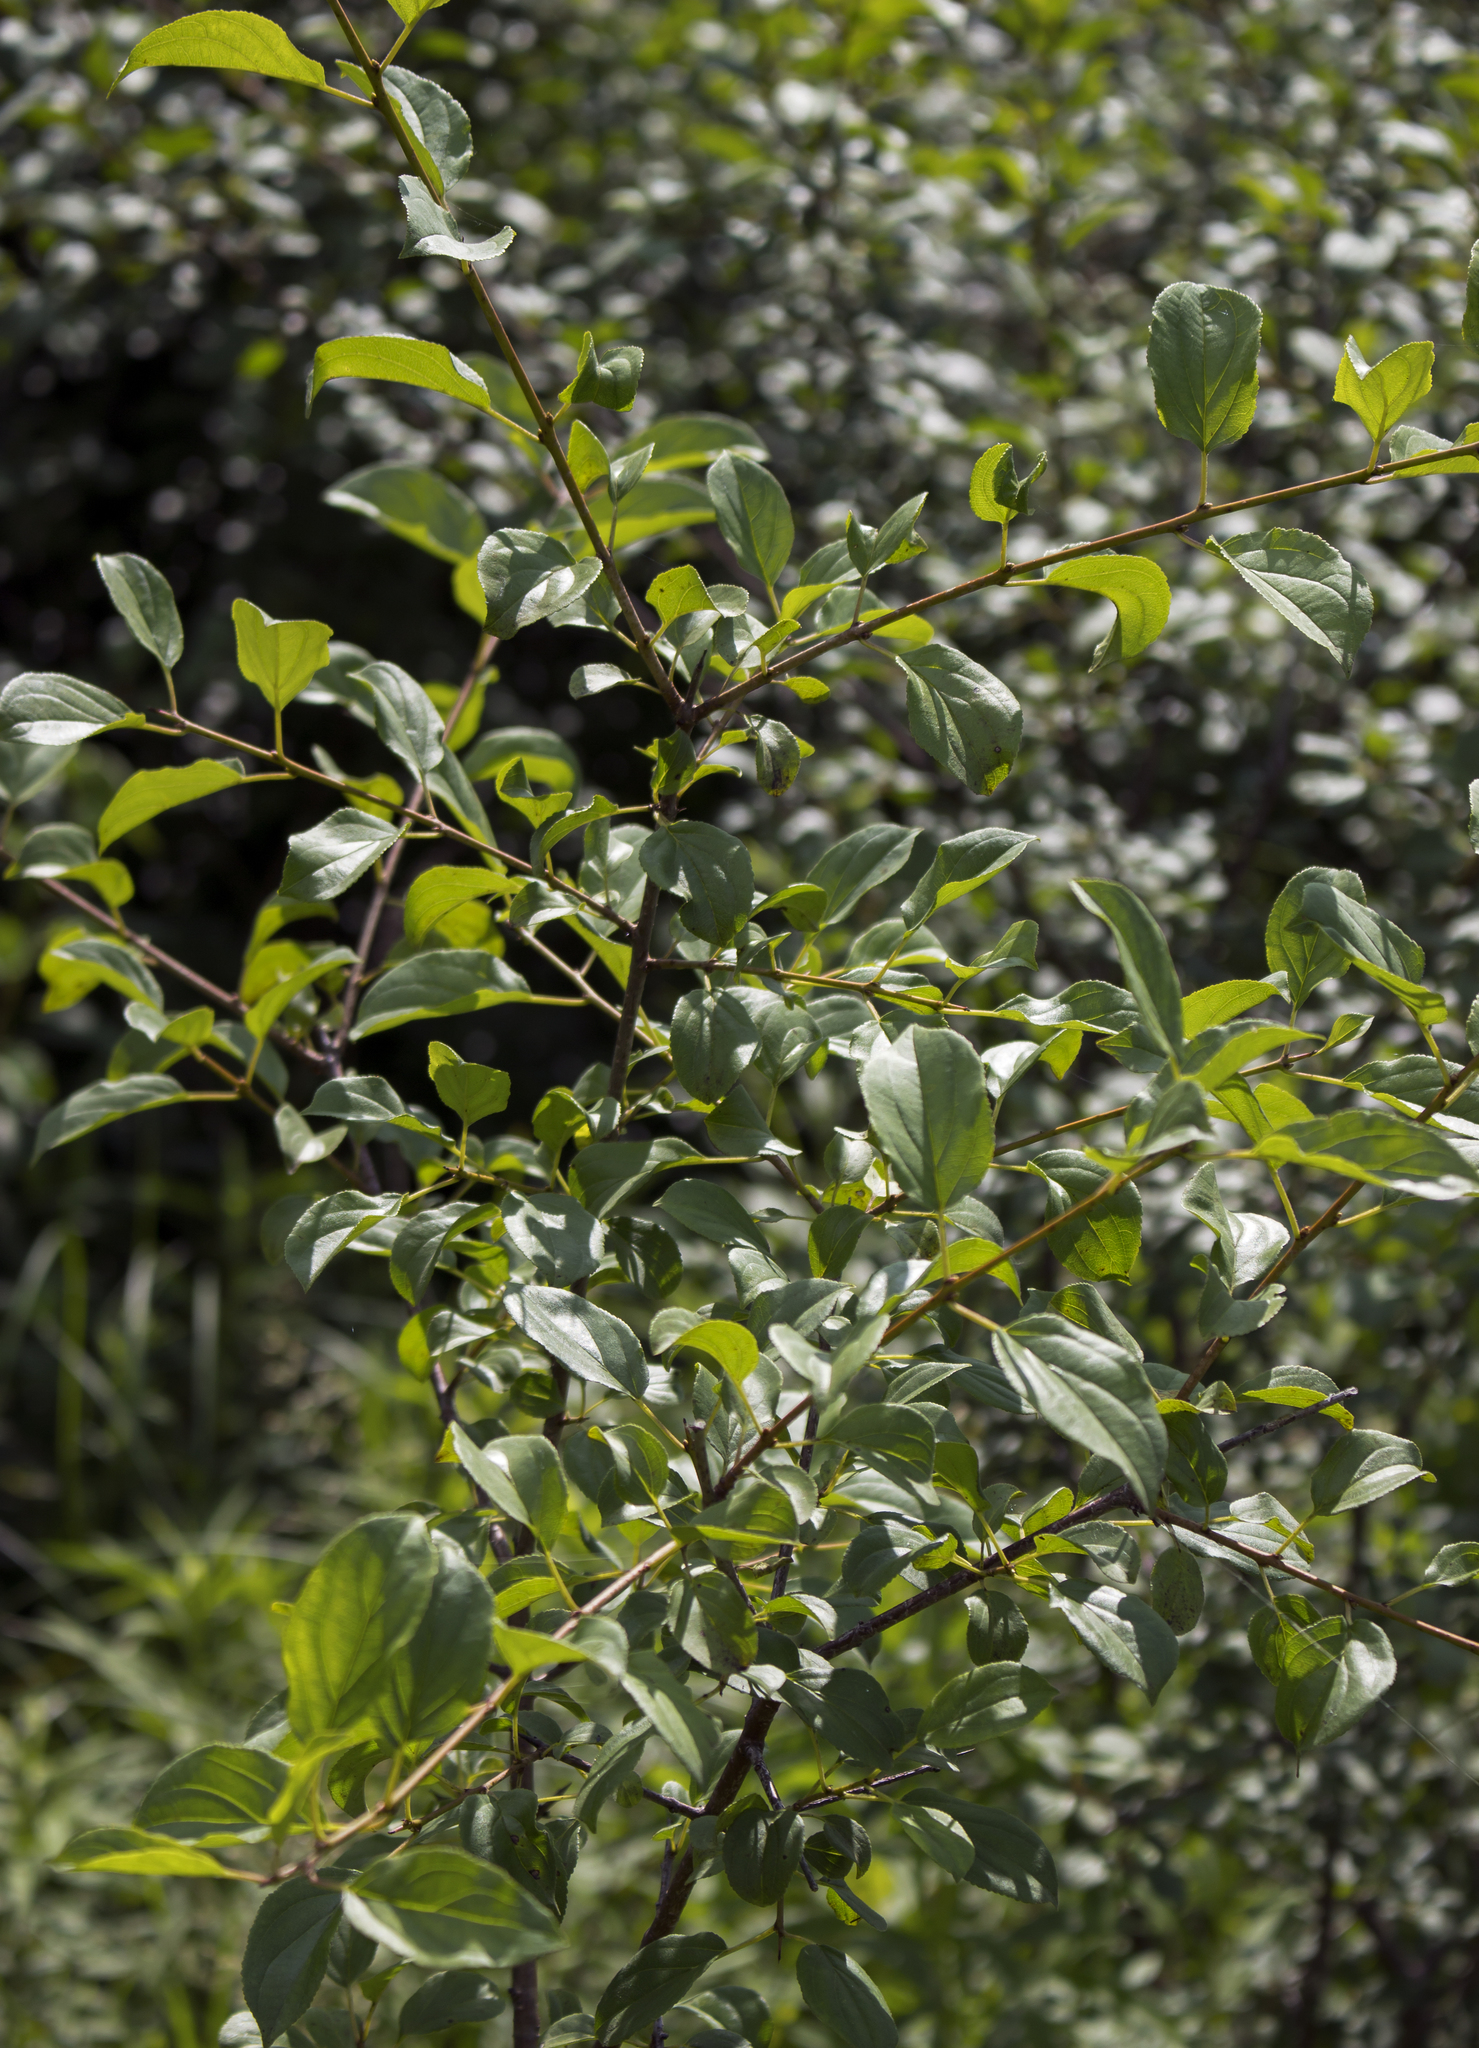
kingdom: Plantae
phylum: Tracheophyta
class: Magnoliopsida
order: Rosales
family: Rhamnaceae
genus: Rhamnus
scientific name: Rhamnus cathartica
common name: Common buckthorn
